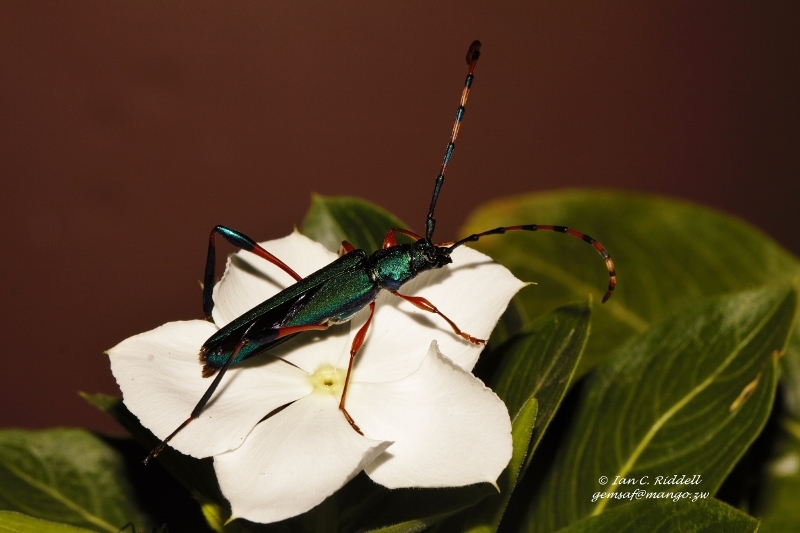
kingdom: Animalia
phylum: Arthropoda
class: Insecta
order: Coleoptera
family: Cerambycidae
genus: Litopus
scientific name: Litopus latipes
